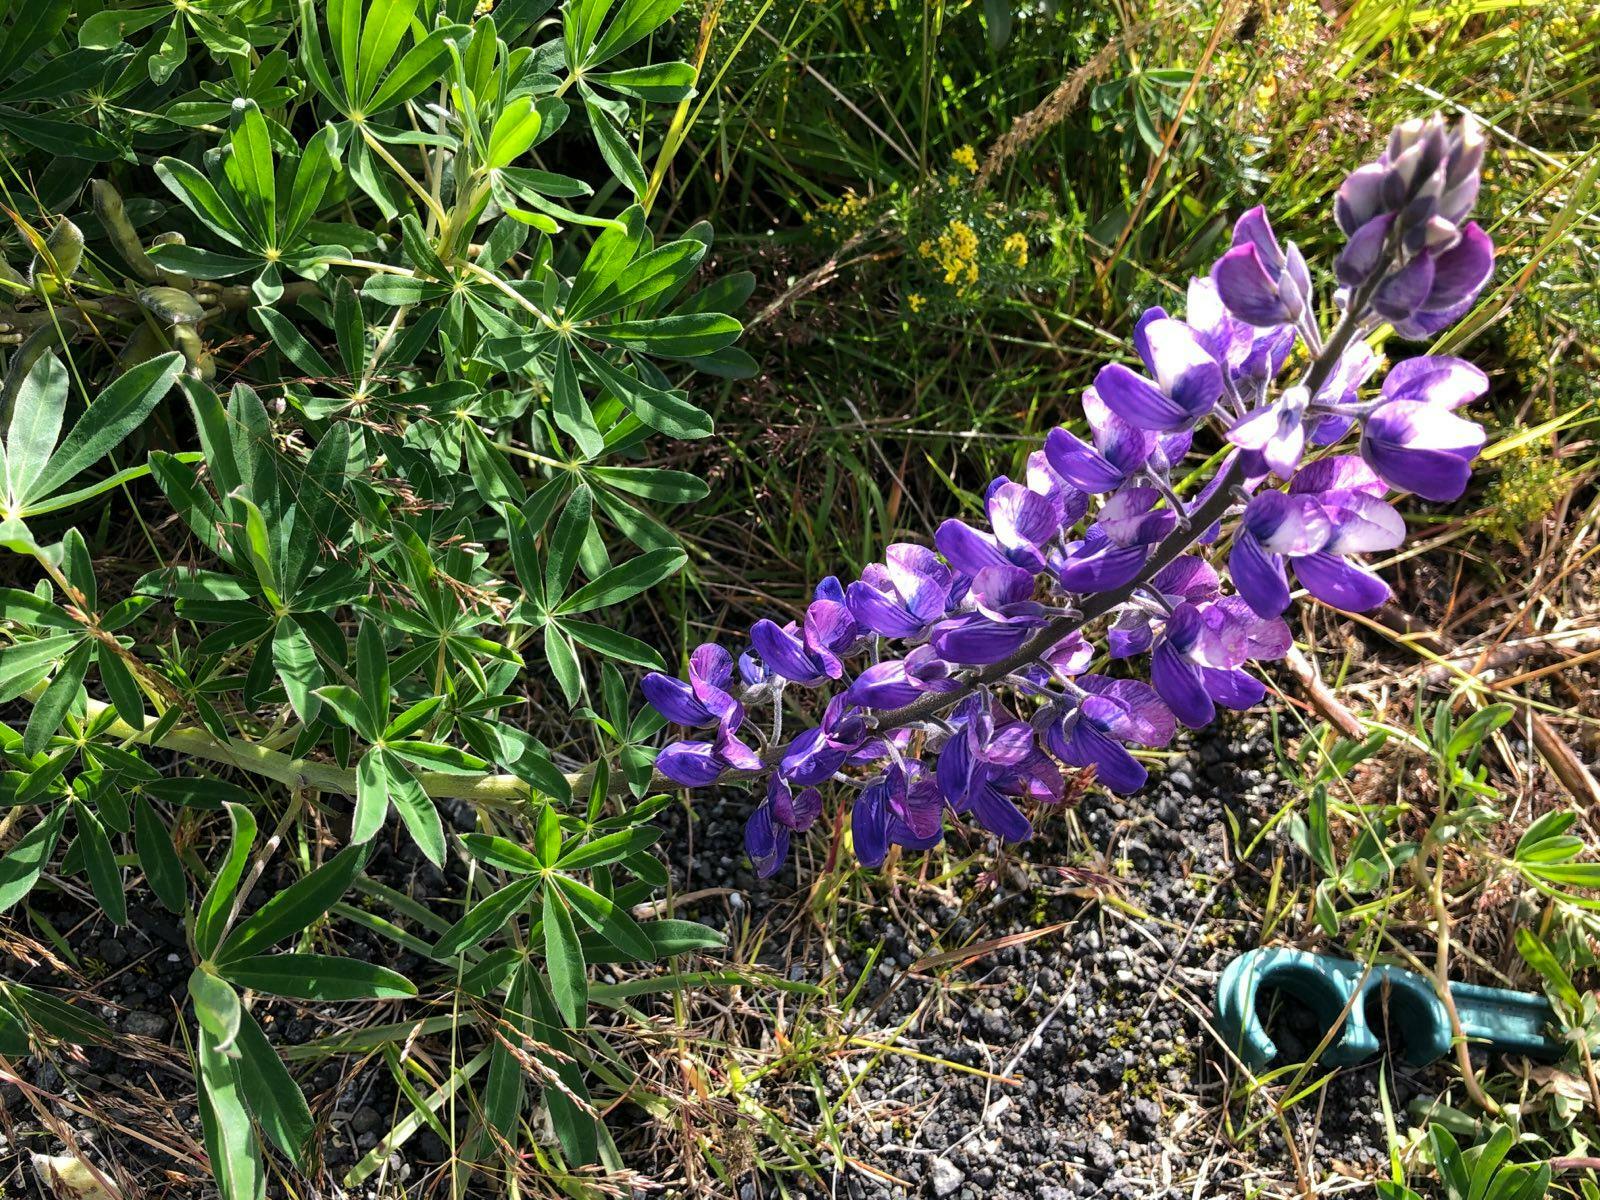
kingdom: Plantae
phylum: Tracheophyta
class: Magnoliopsida
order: Fabales
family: Fabaceae
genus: Lupinus
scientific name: Lupinus nootkatensis
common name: Nootka lupine
